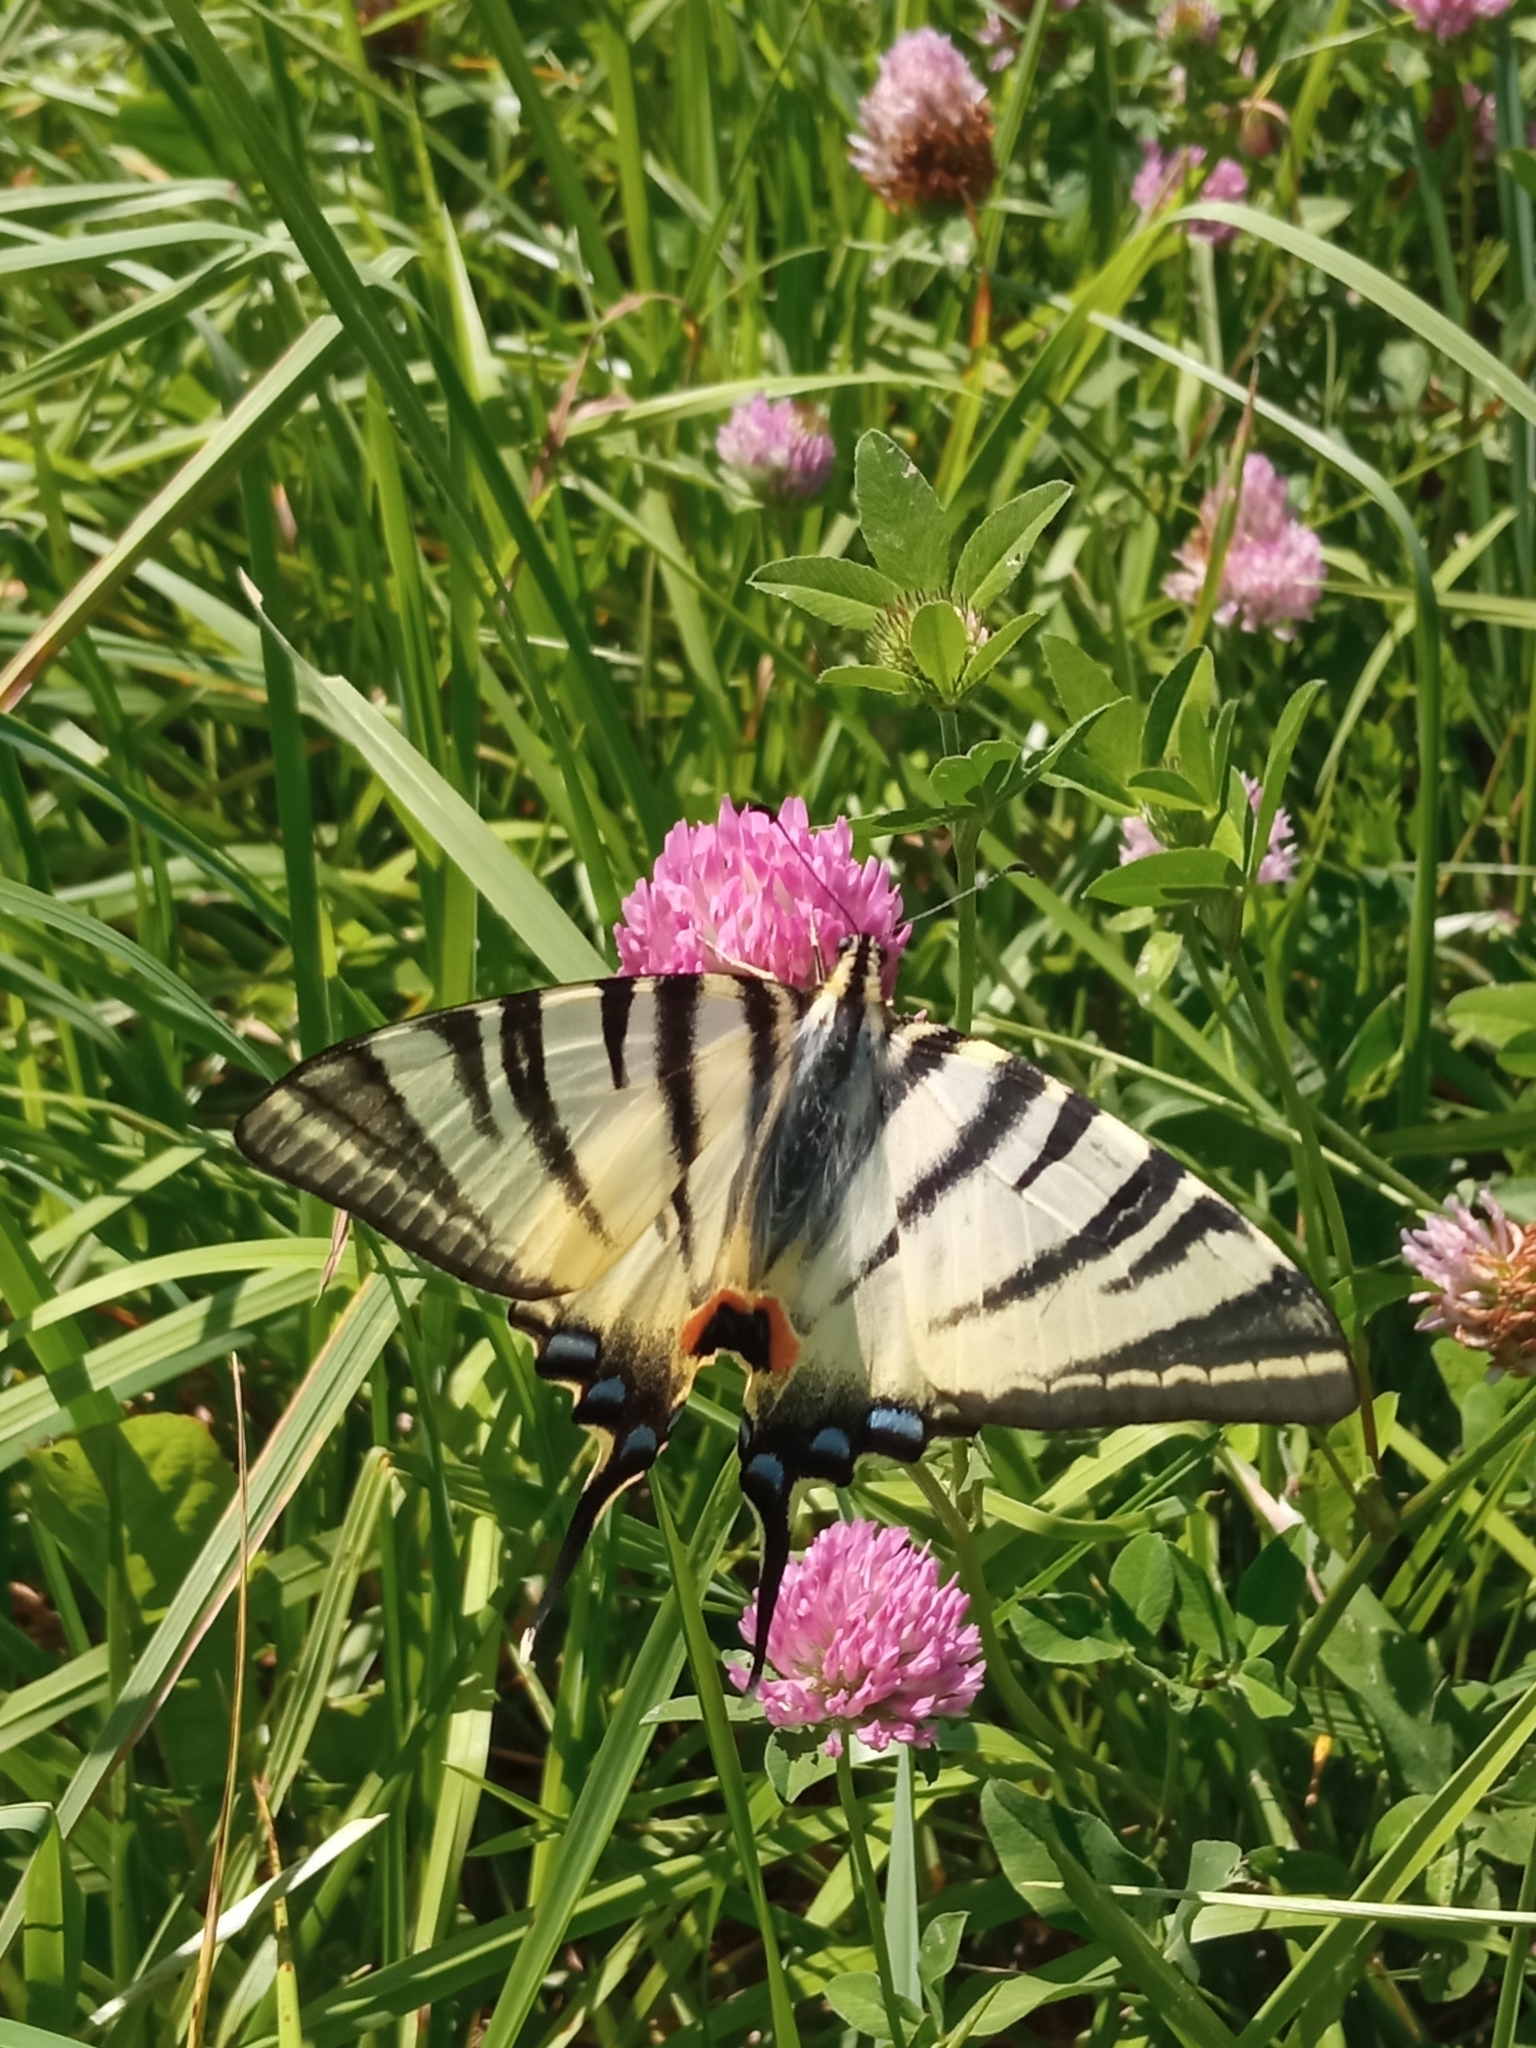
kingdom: Animalia
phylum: Arthropoda
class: Insecta
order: Lepidoptera
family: Papilionidae
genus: Iphiclides
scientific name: Iphiclides podalirius
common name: Scarce swallowtail
